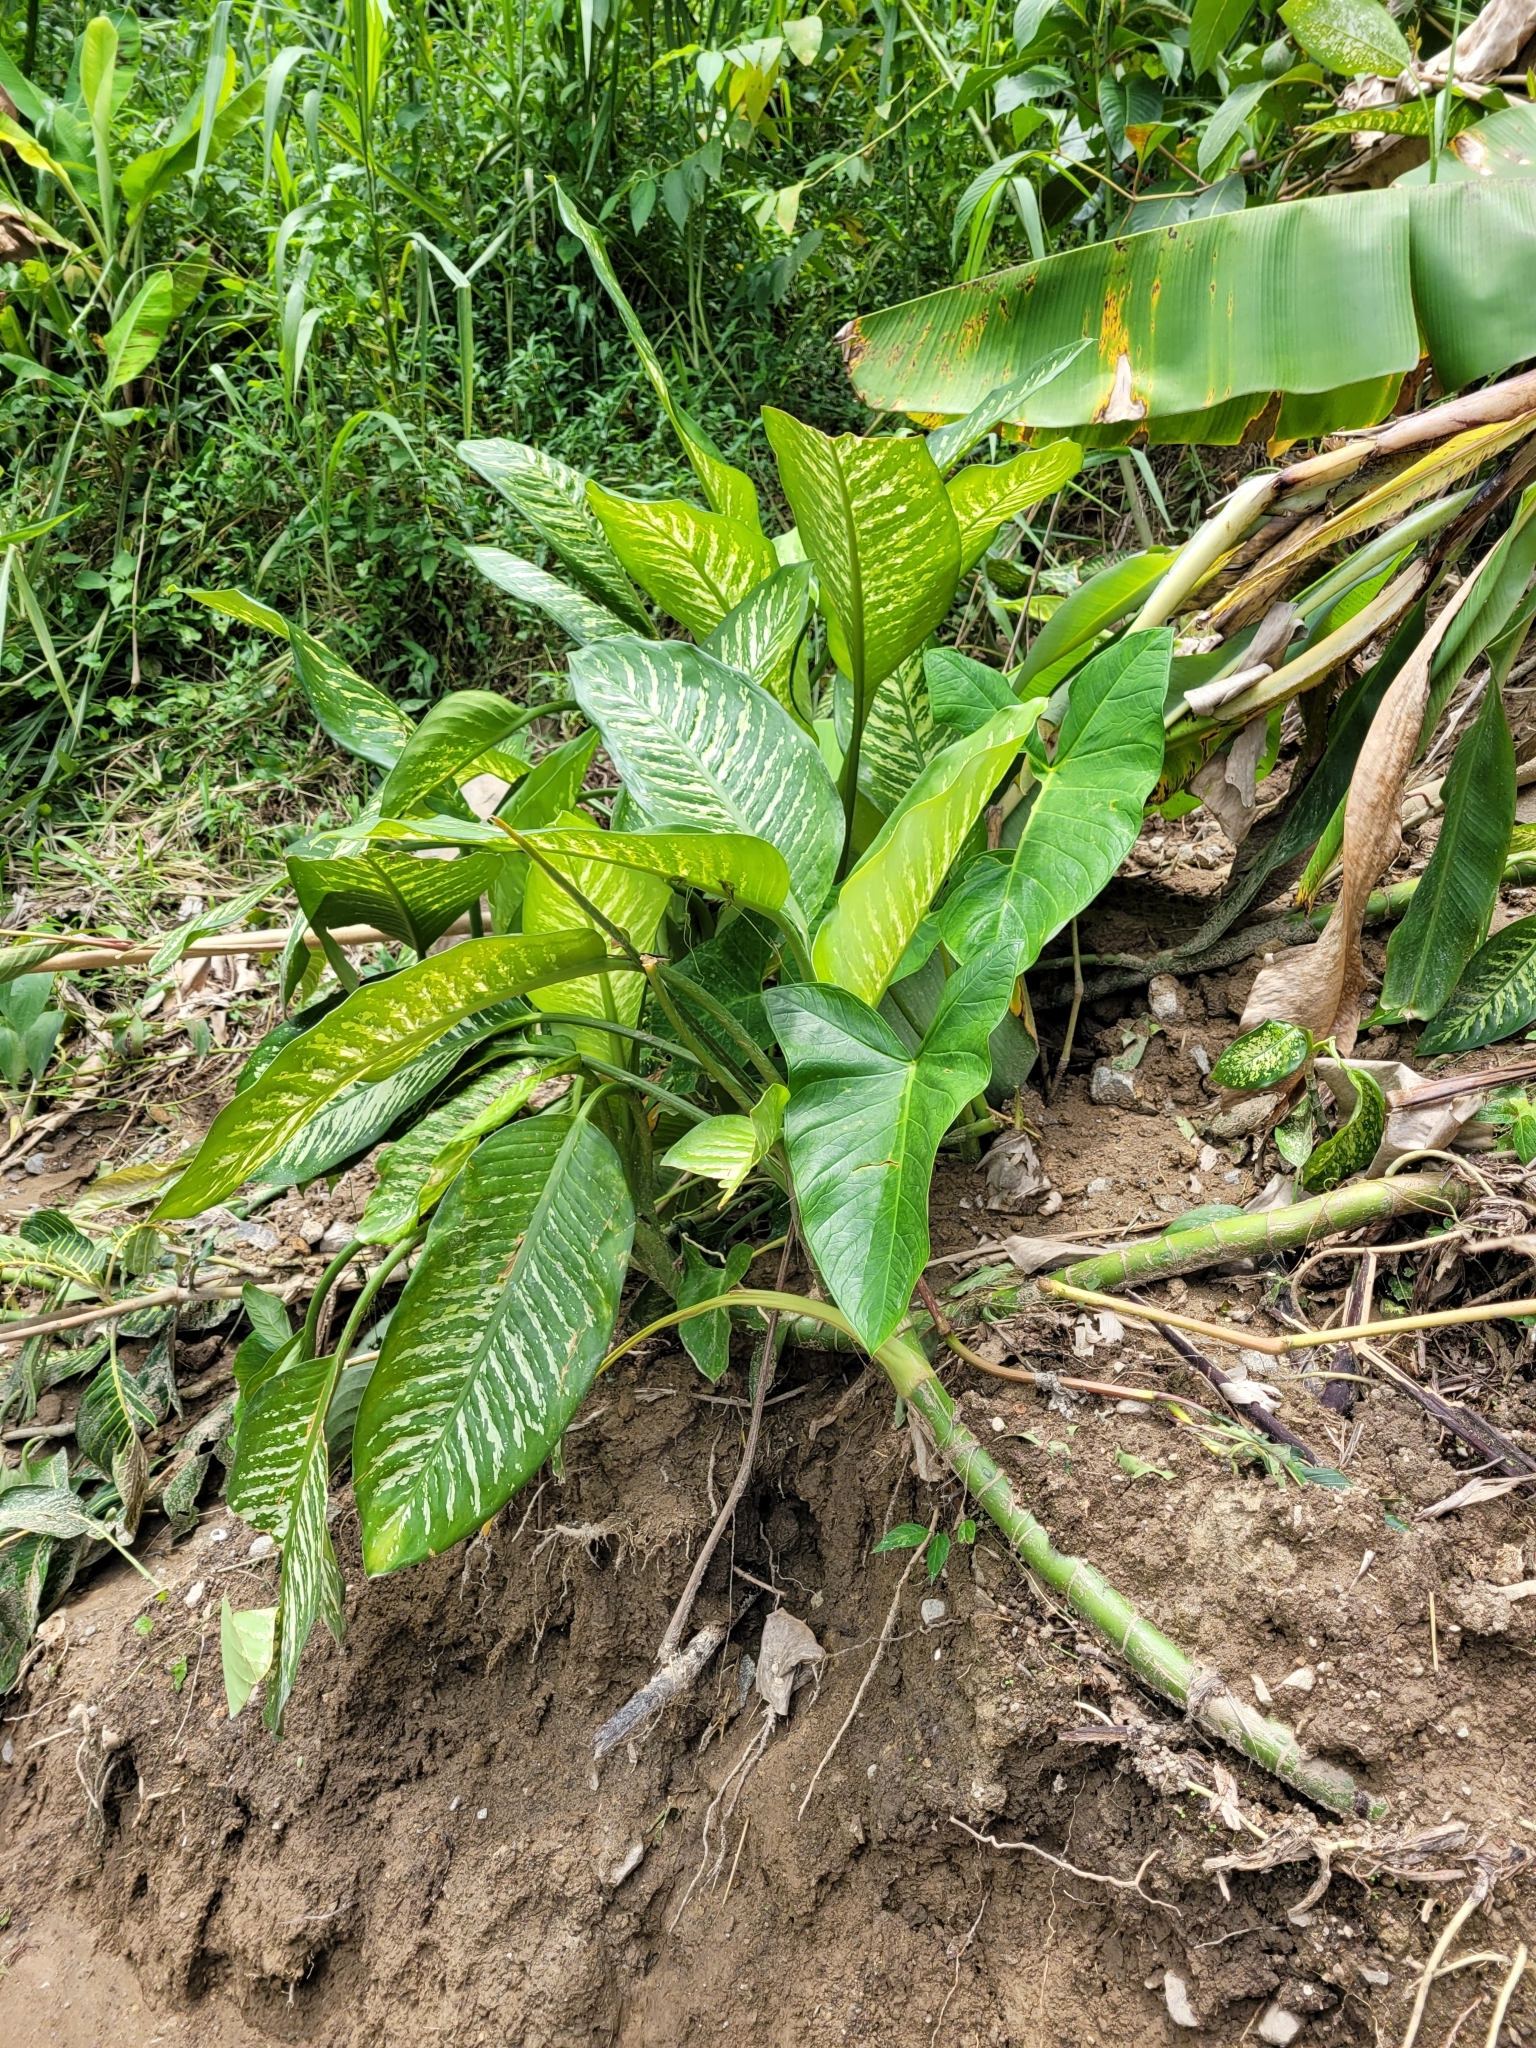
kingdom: Plantae
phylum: Tracheophyta
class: Liliopsida
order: Alismatales
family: Araceae
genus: Dieffenbachia
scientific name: Dieffenbachia seguine
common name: Dumbcane
